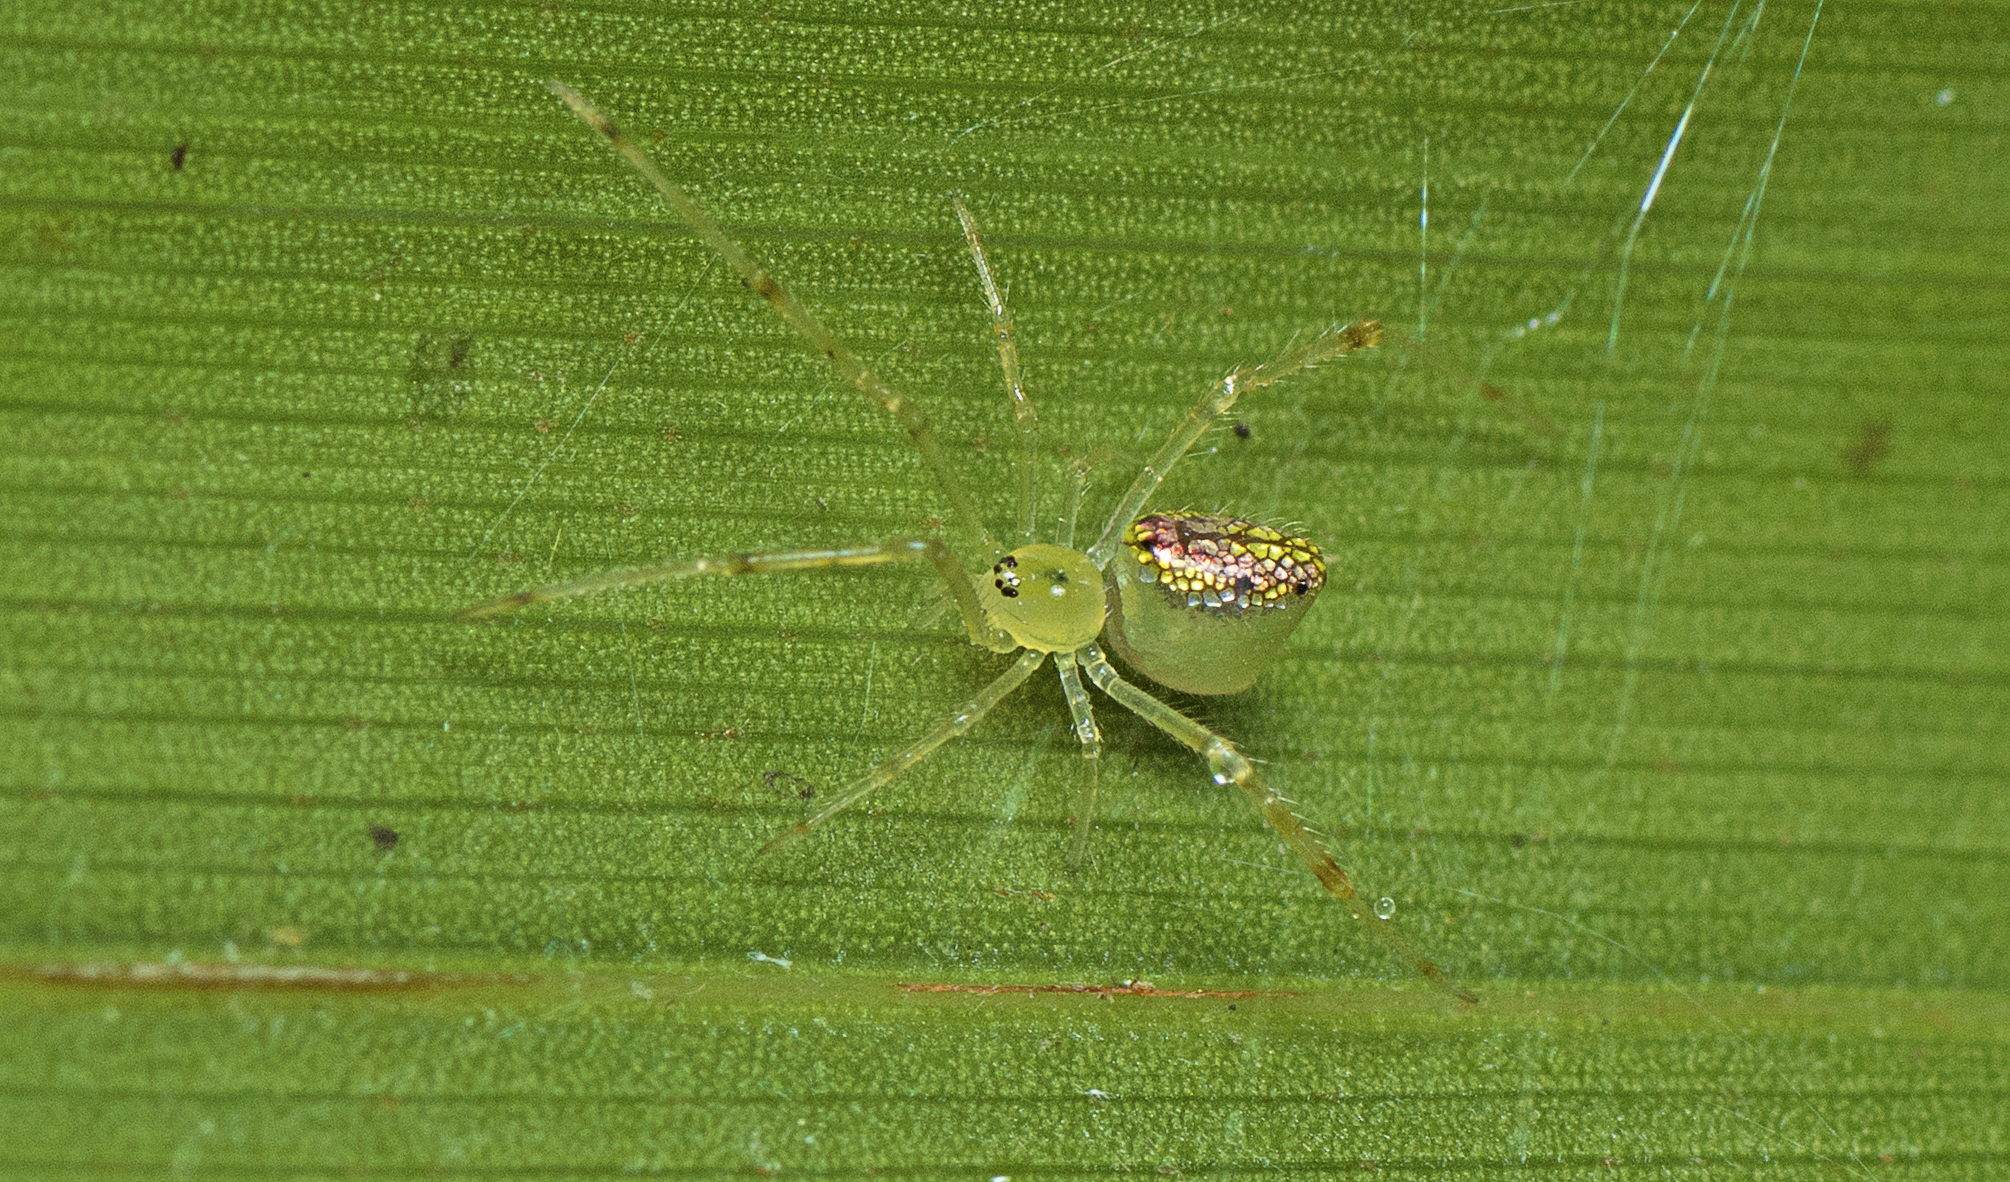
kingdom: Animalia
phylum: Arthropoda
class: Arachnida
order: Araneae
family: Theridiidae
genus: Thwaitesia
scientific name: Thwaitesia nigronodosa
